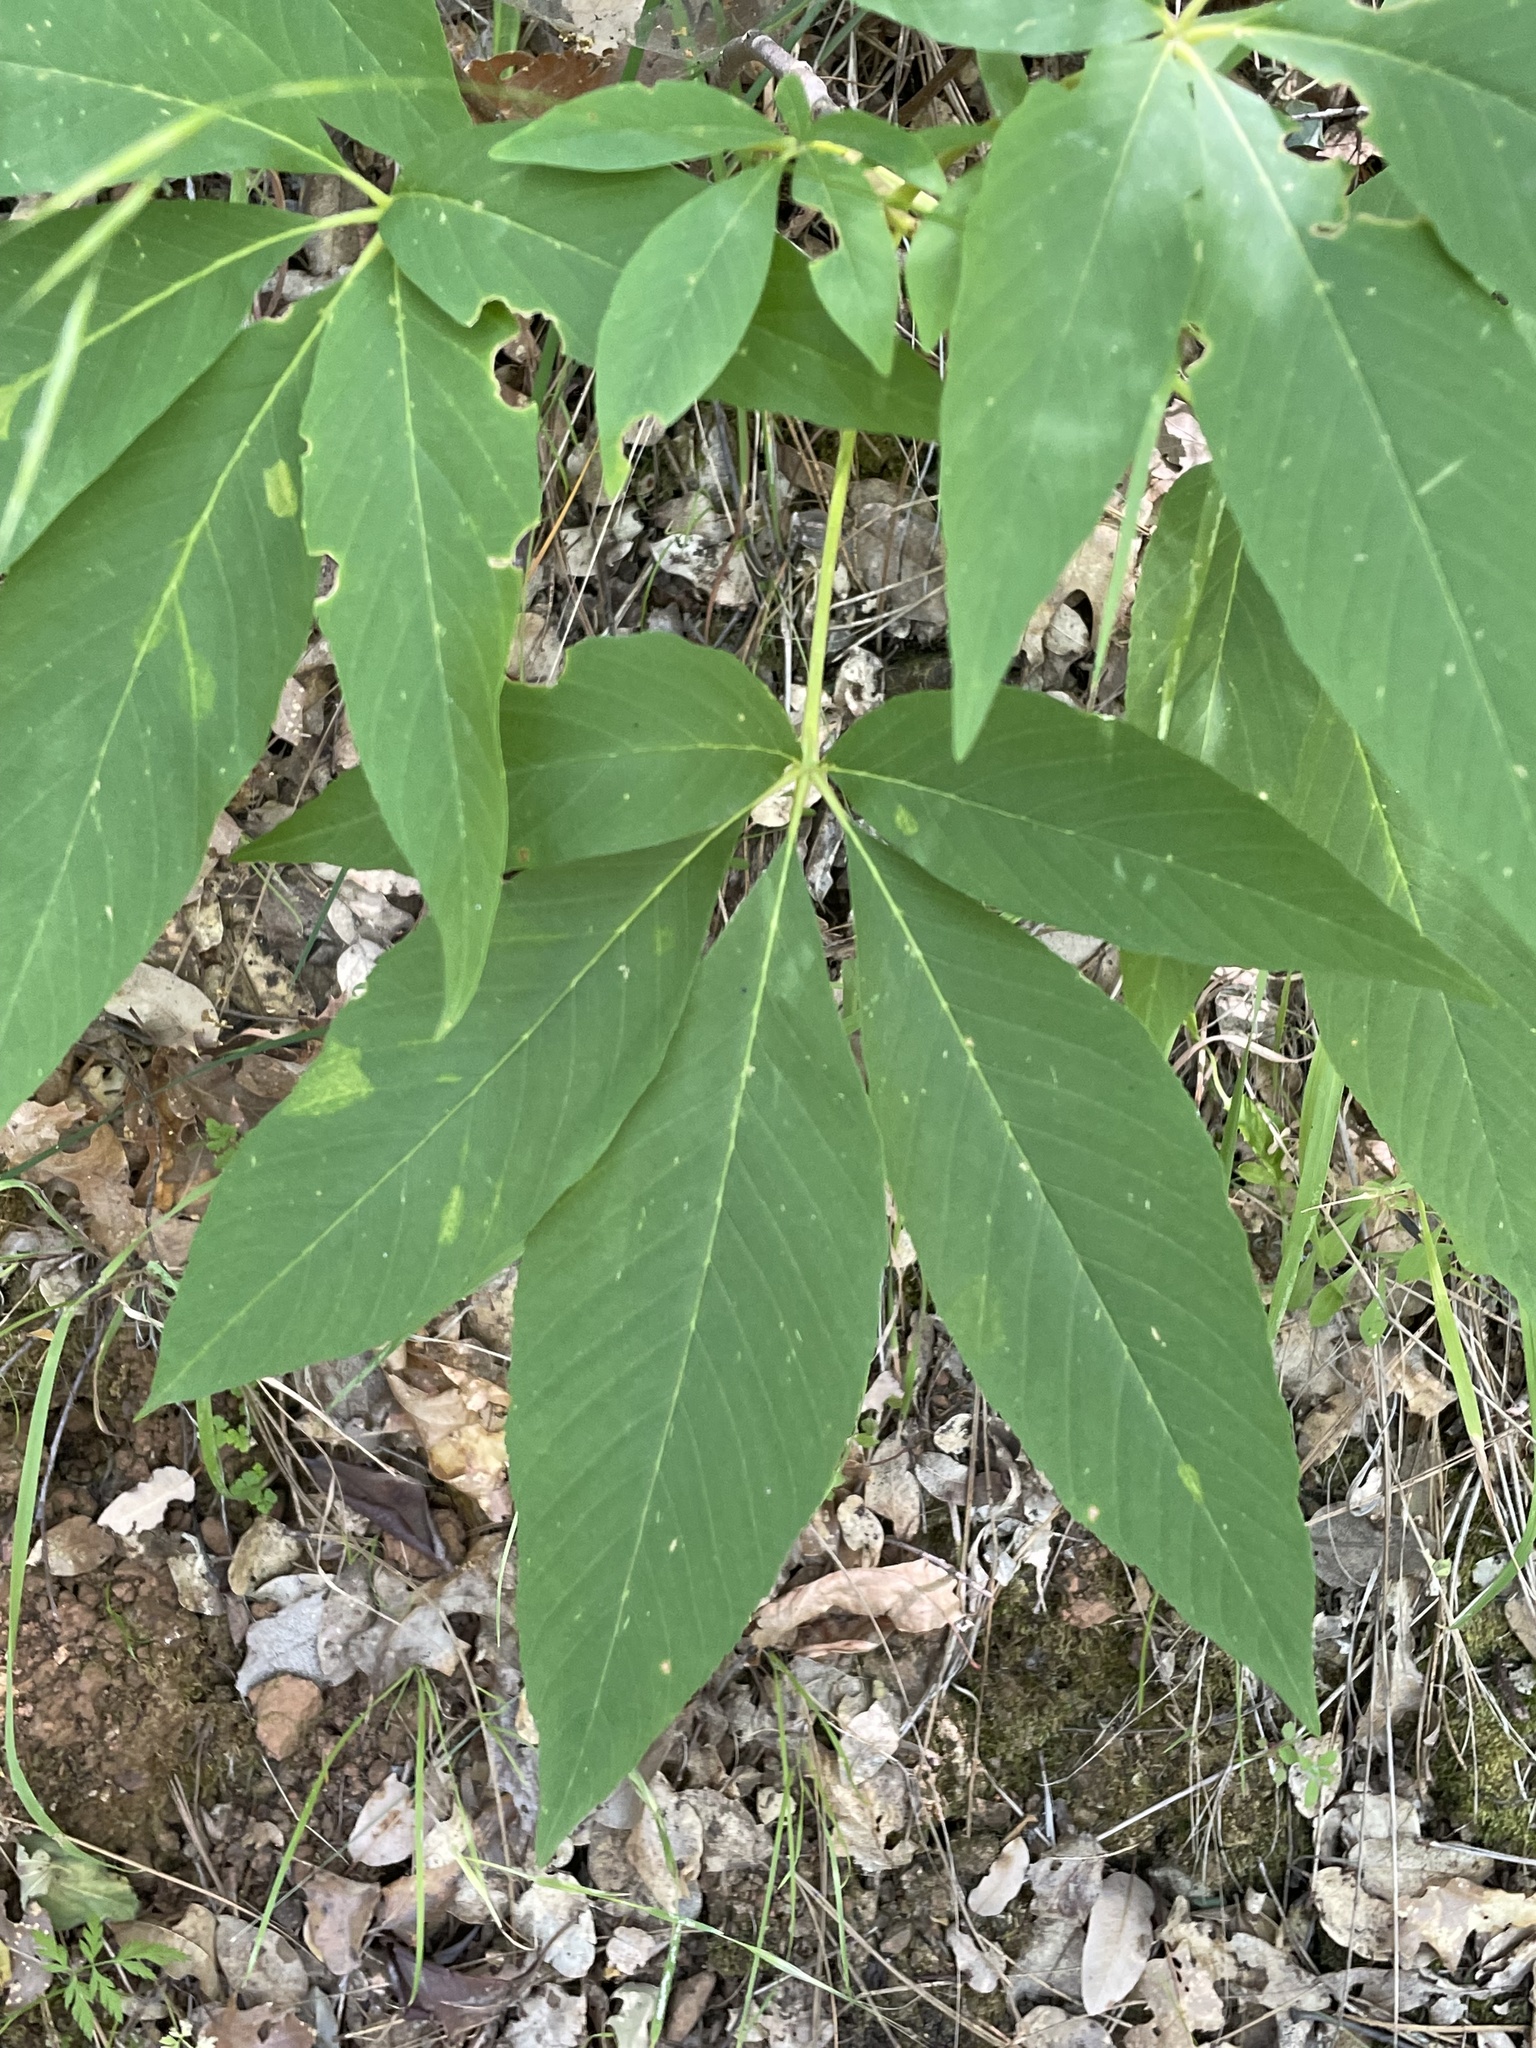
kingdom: Plantae
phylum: Tracheophyta
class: Magnoliopsida
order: Sapindales
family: Sapindaceae
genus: Aesculus
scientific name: Aesculus californica
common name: California buckeye
